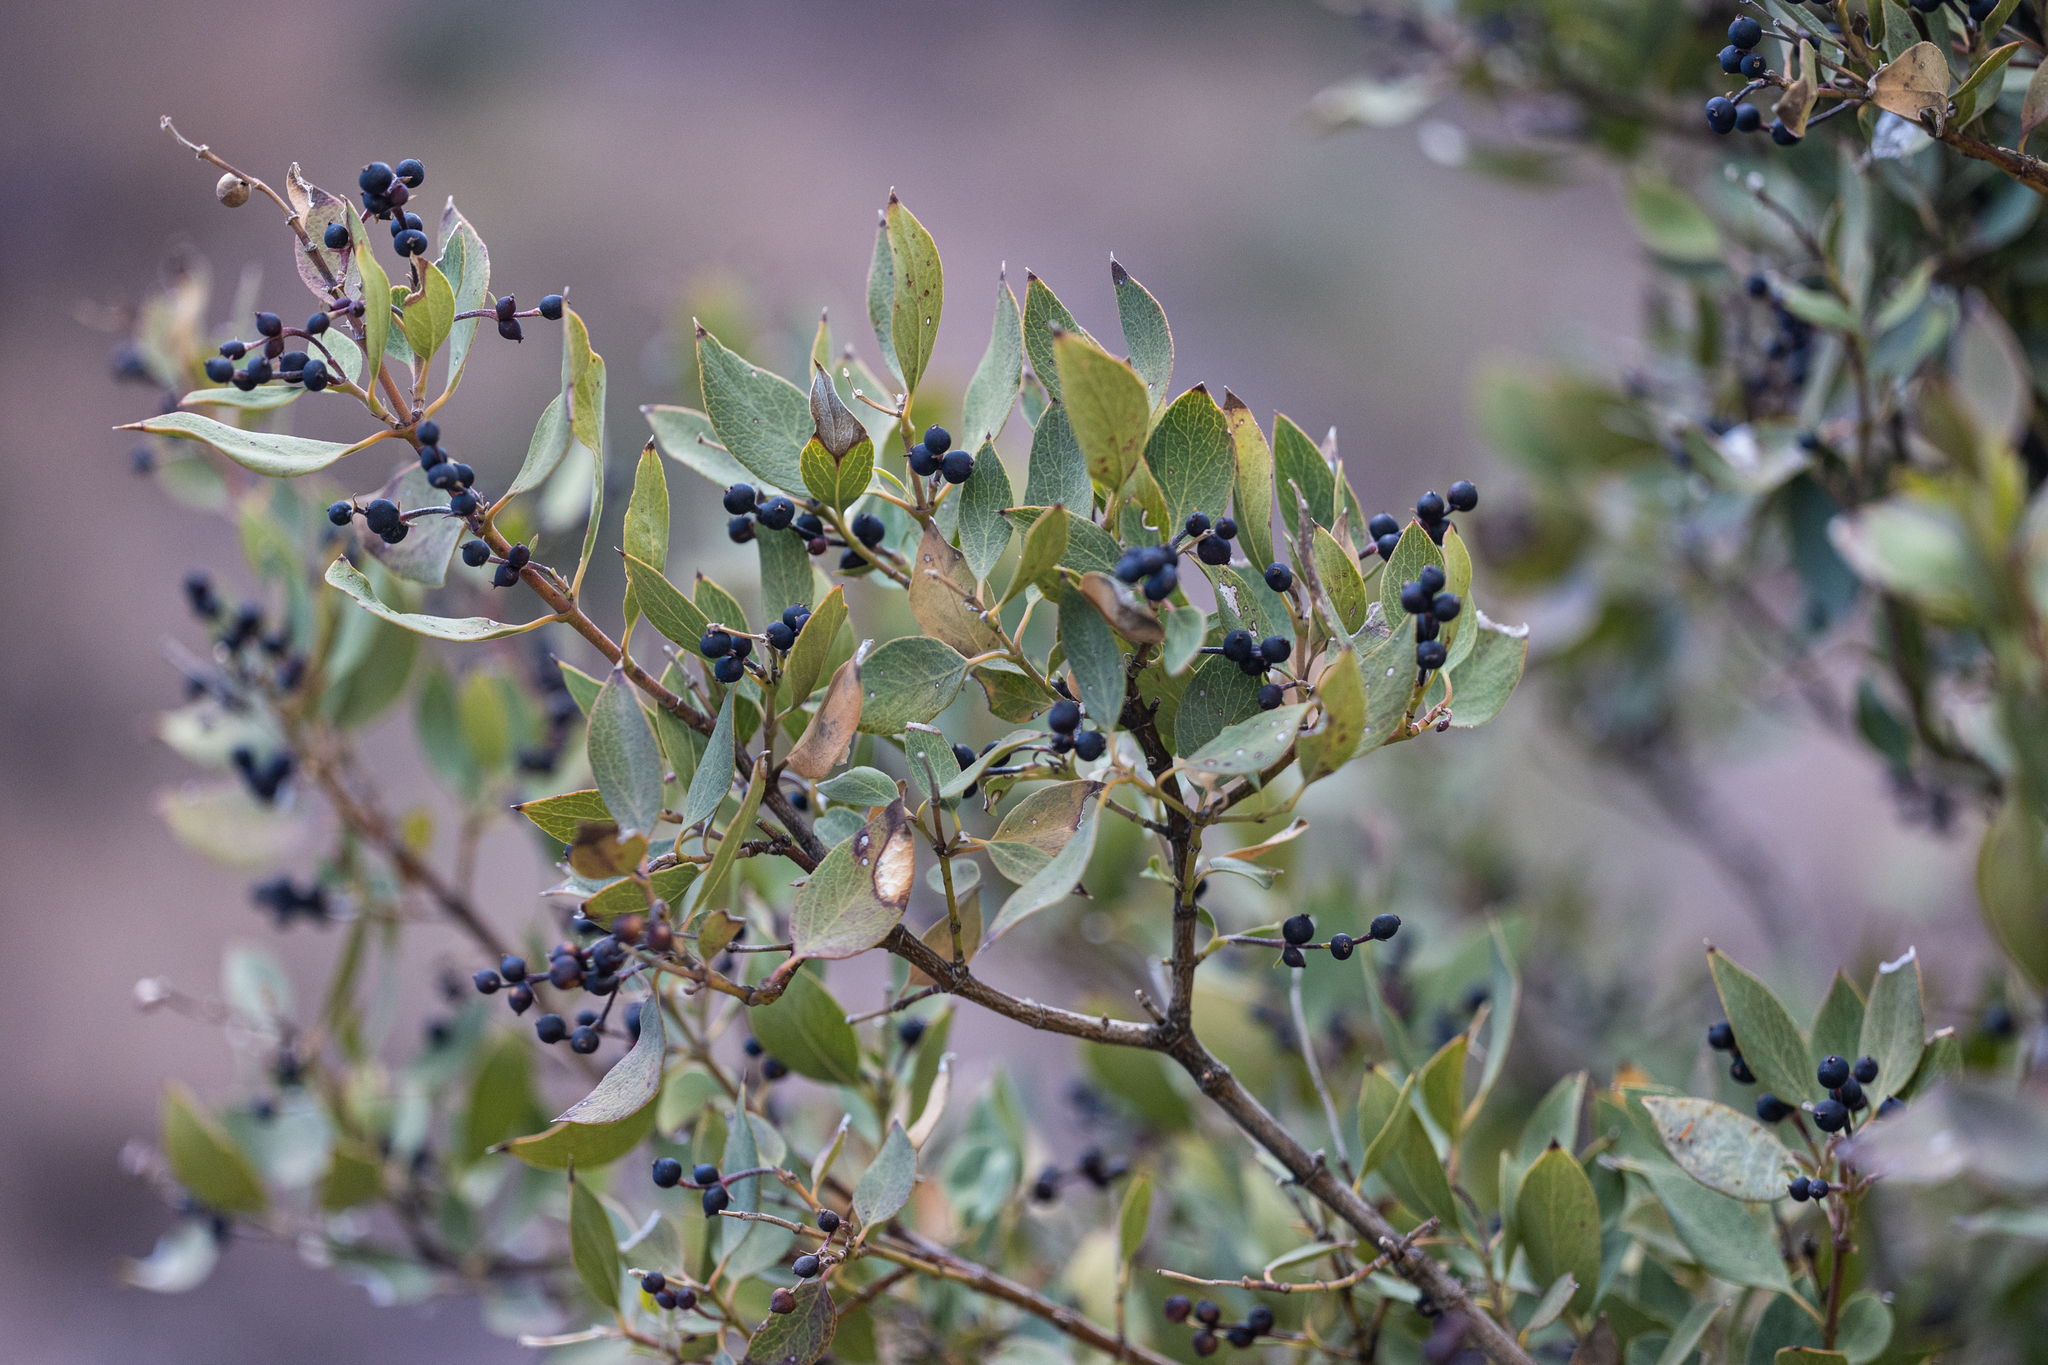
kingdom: Plantae
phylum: Tracheophyta
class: Magnoliopsida
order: Garryales
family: Garryaceae
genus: Garrya
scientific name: Garrya wrightii
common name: Wright's silktassel
